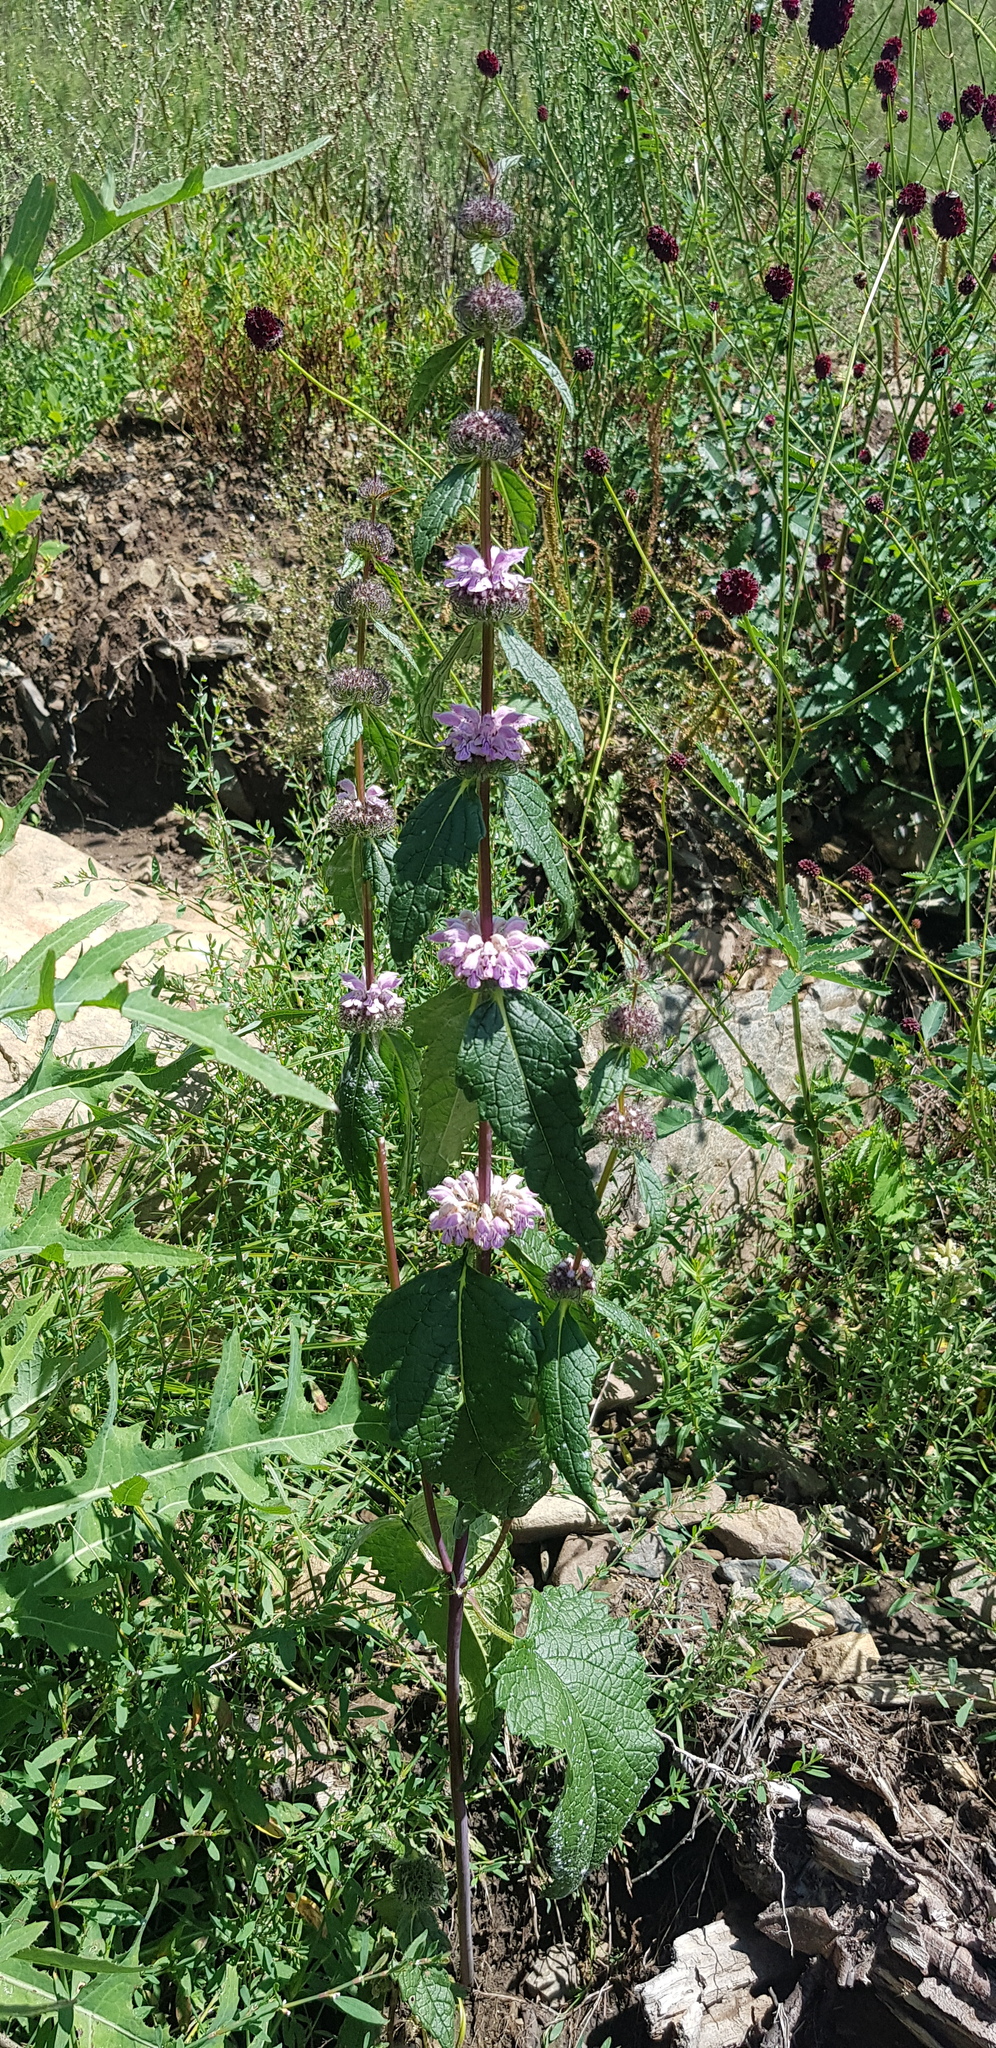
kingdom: Plantae
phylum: Tracheophyta
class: Magnoliopsida
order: Lamiales
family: Lamiaceae
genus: Phlomoides
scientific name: Phlomoides tuberosa
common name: Tuberous jerusalem sage
